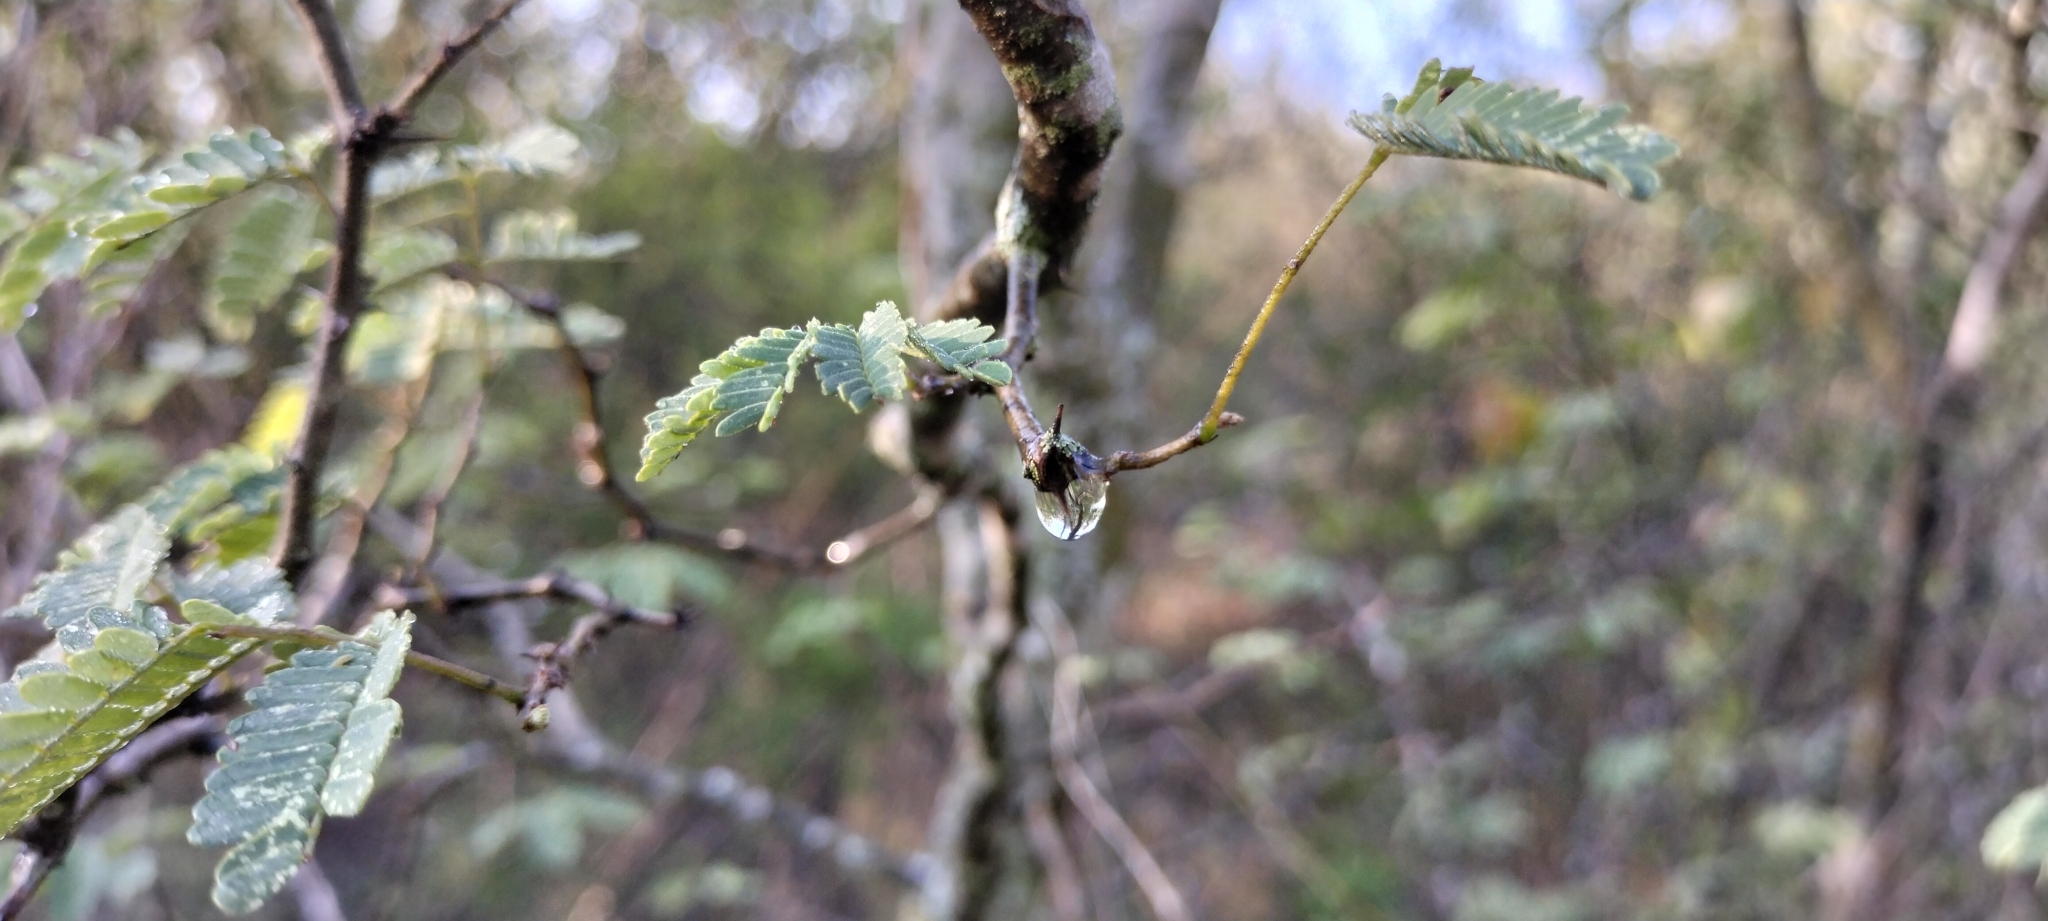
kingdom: Plantae
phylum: Tracheophyta
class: Magnoliopsida
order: Fabales
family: Fabaceae
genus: Havardia
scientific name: Havardia pallens
